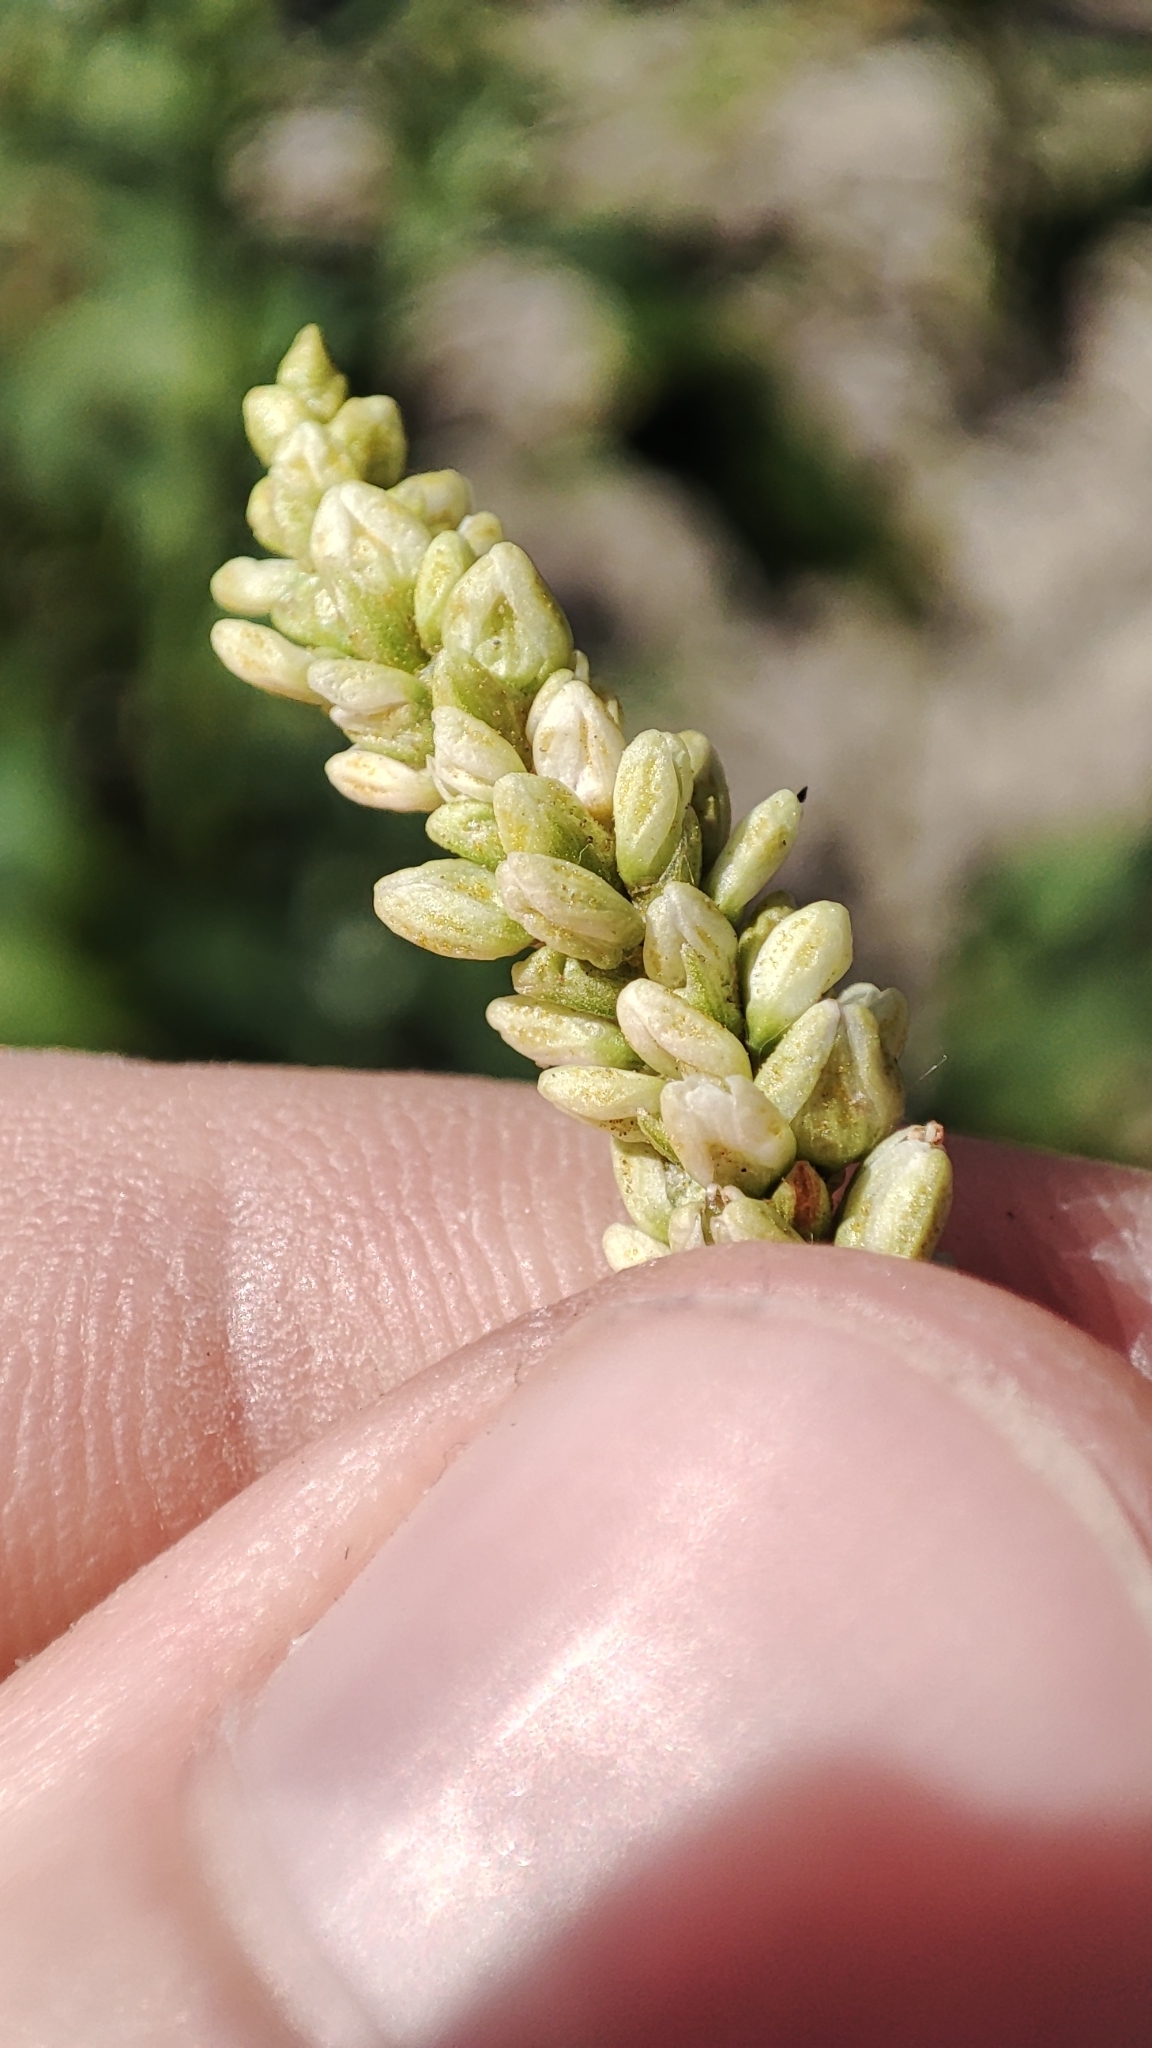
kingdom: Plantae
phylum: Tracheophyta
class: Magnoliopsida
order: Caryophyllales
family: Polygonaceae
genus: Persicaria
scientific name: Persicaria lapathifolia
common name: Curlytop knotweed
